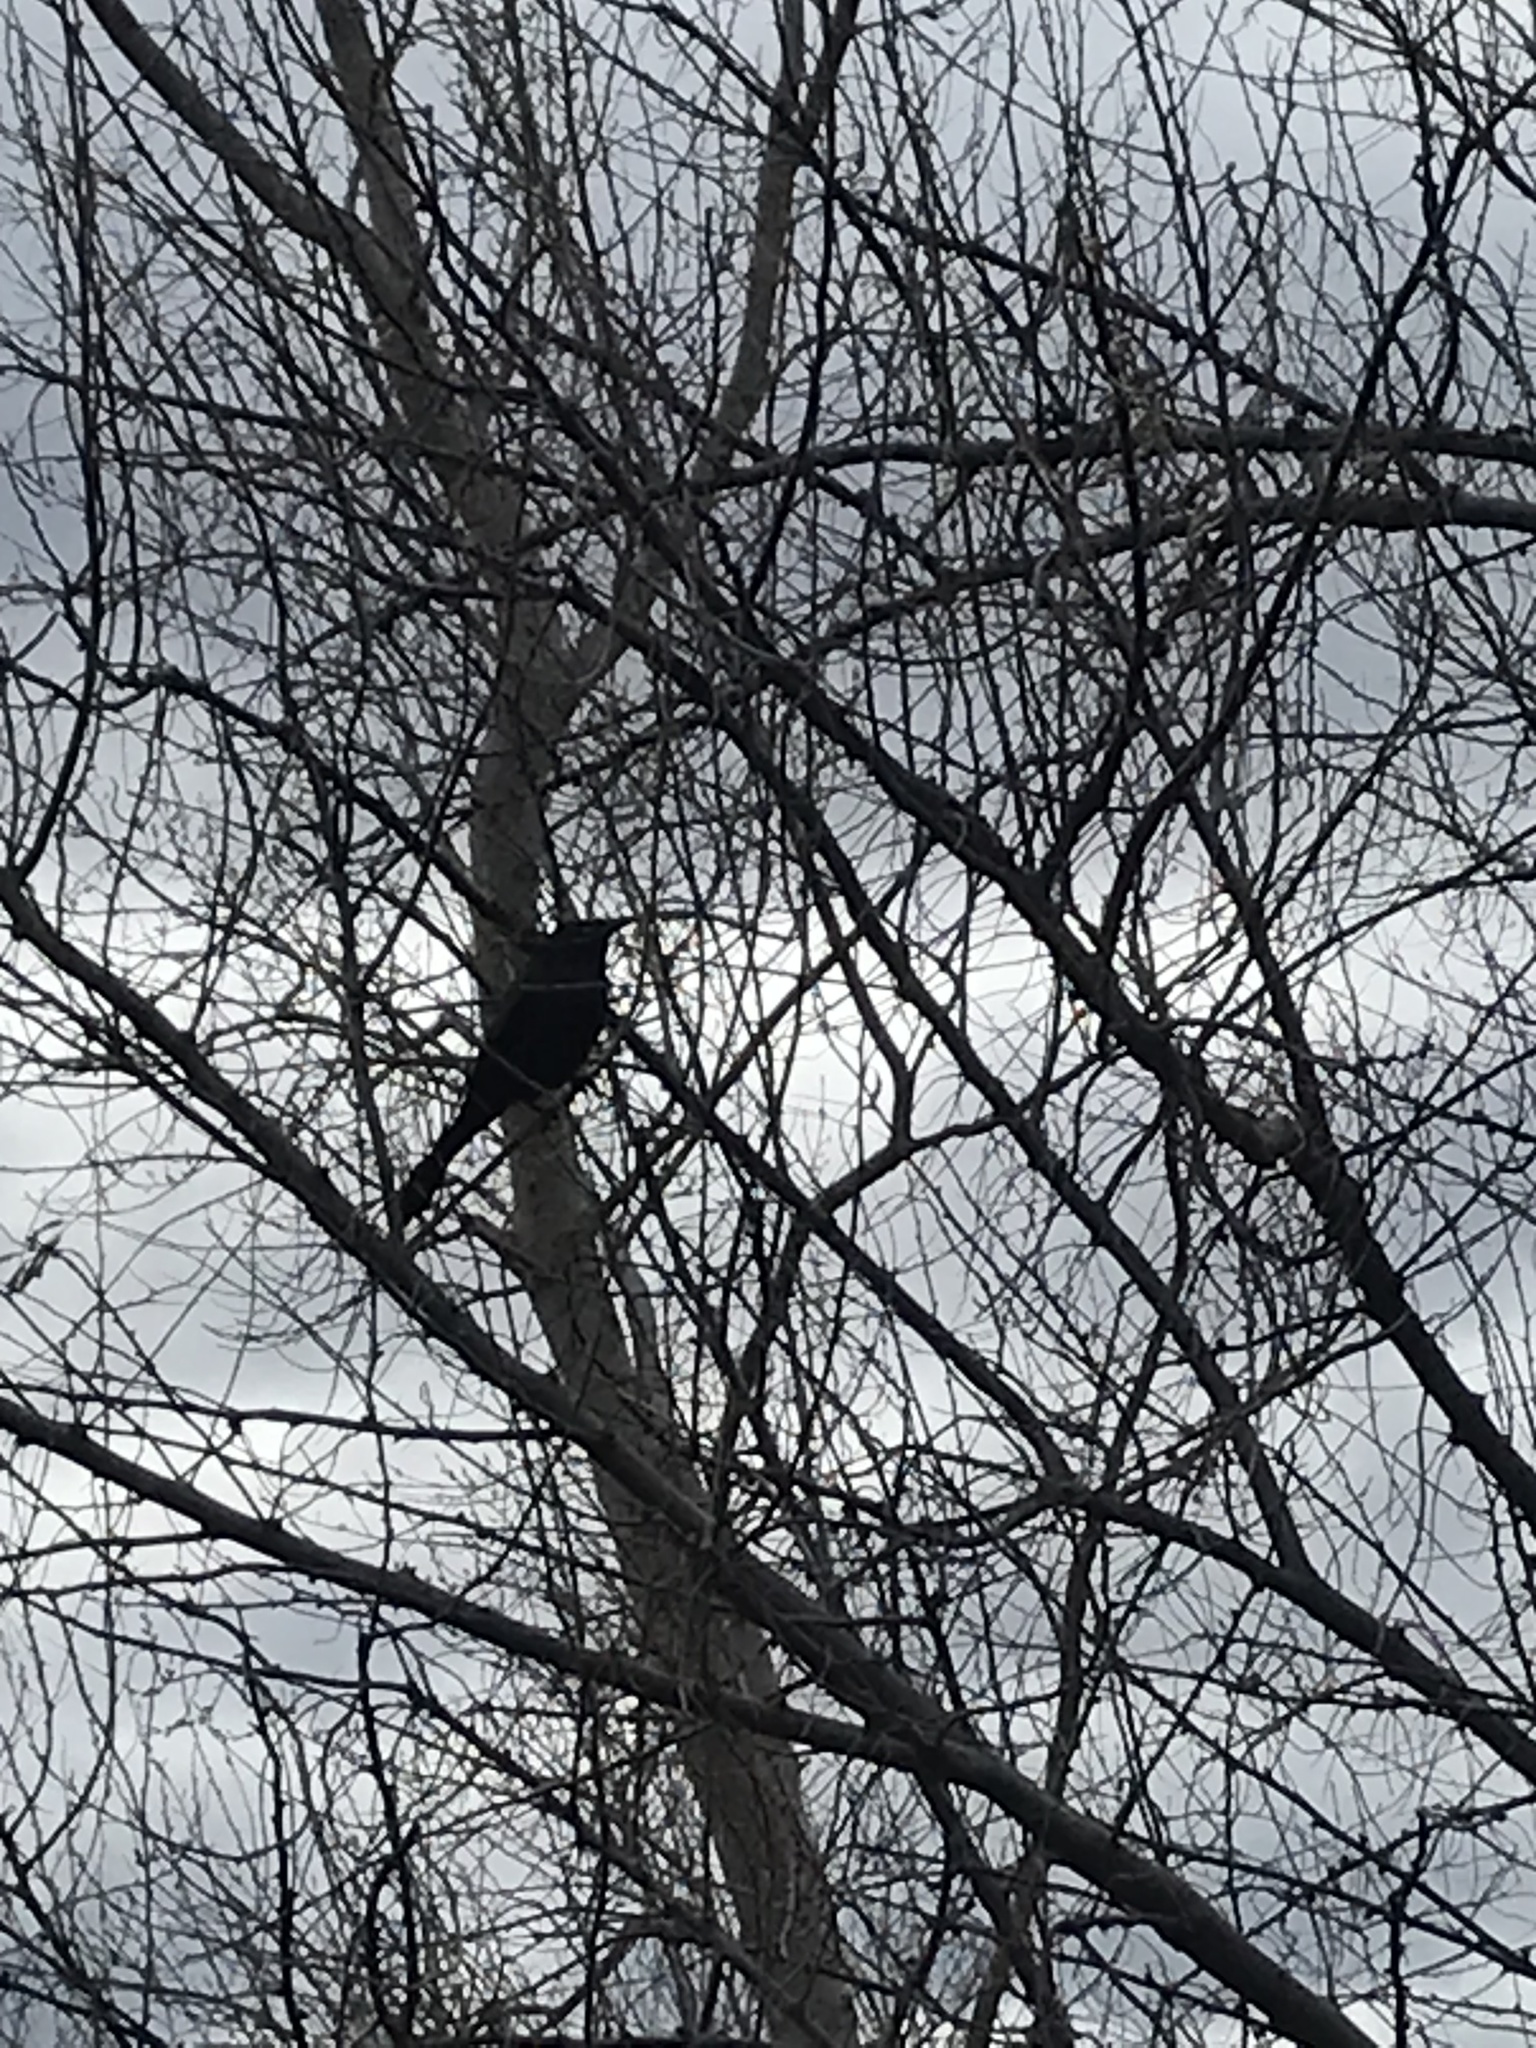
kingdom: Animalia
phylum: Chordata
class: Aves
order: Passeriformes
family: Icteridae
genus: Quiscalus
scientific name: Quiscalus quiscula
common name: Common grackle
